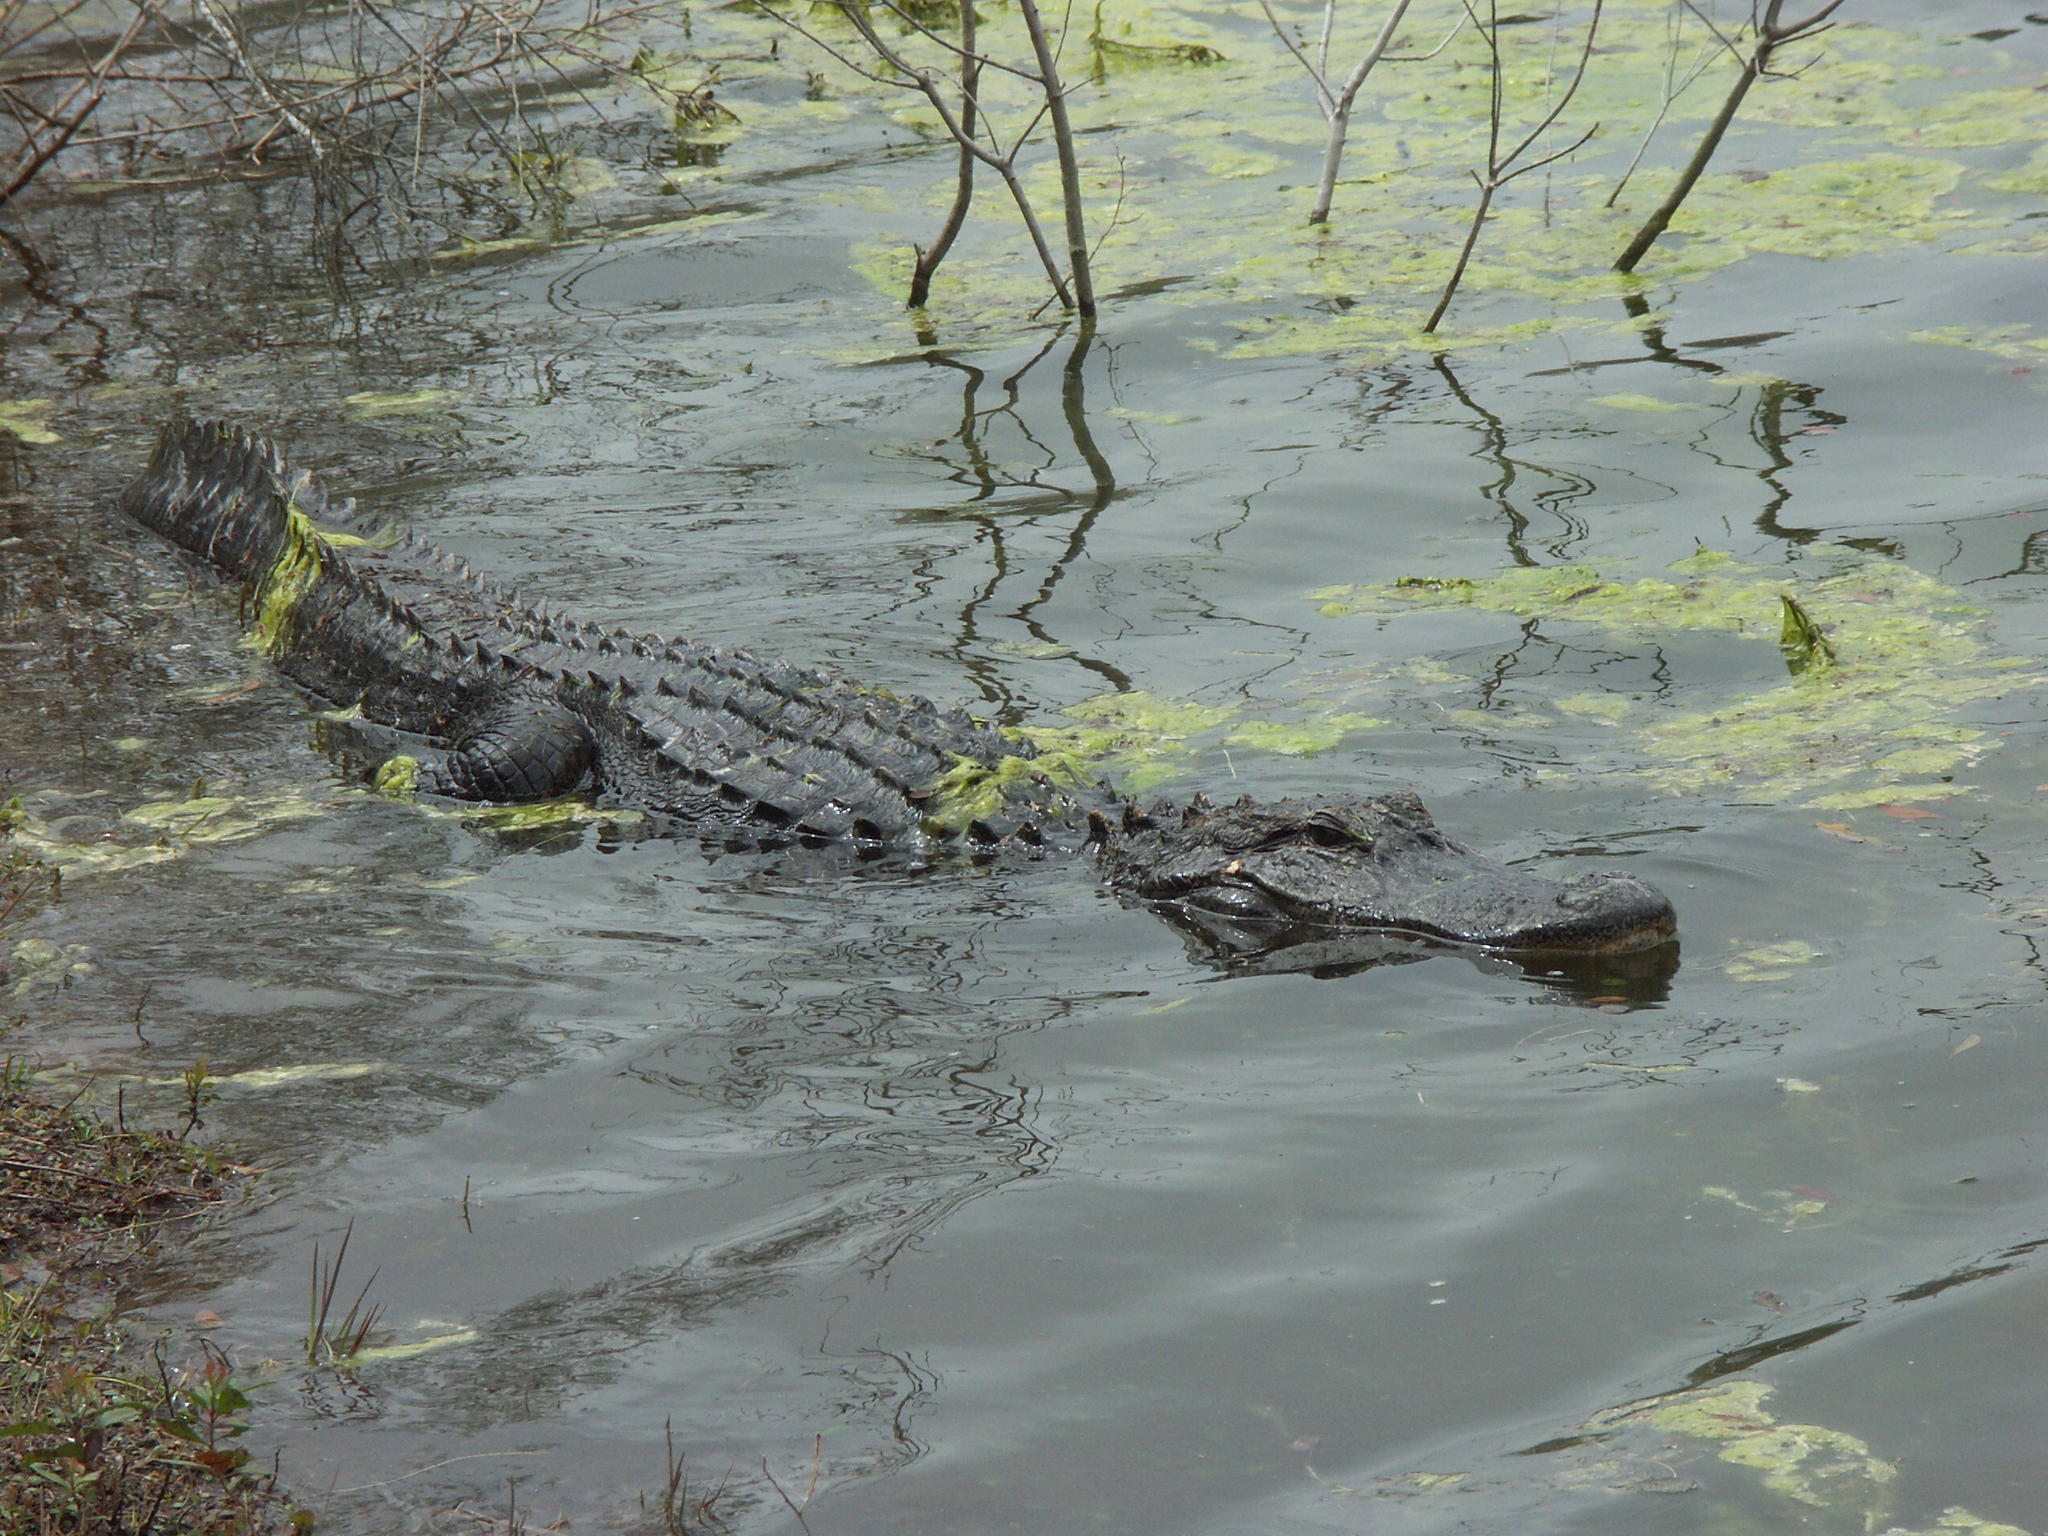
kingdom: Animalia
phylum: Chordata
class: Crocodylia
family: Alligatoridae
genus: Alligator
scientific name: Alligator mississippiensis
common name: American alligator
